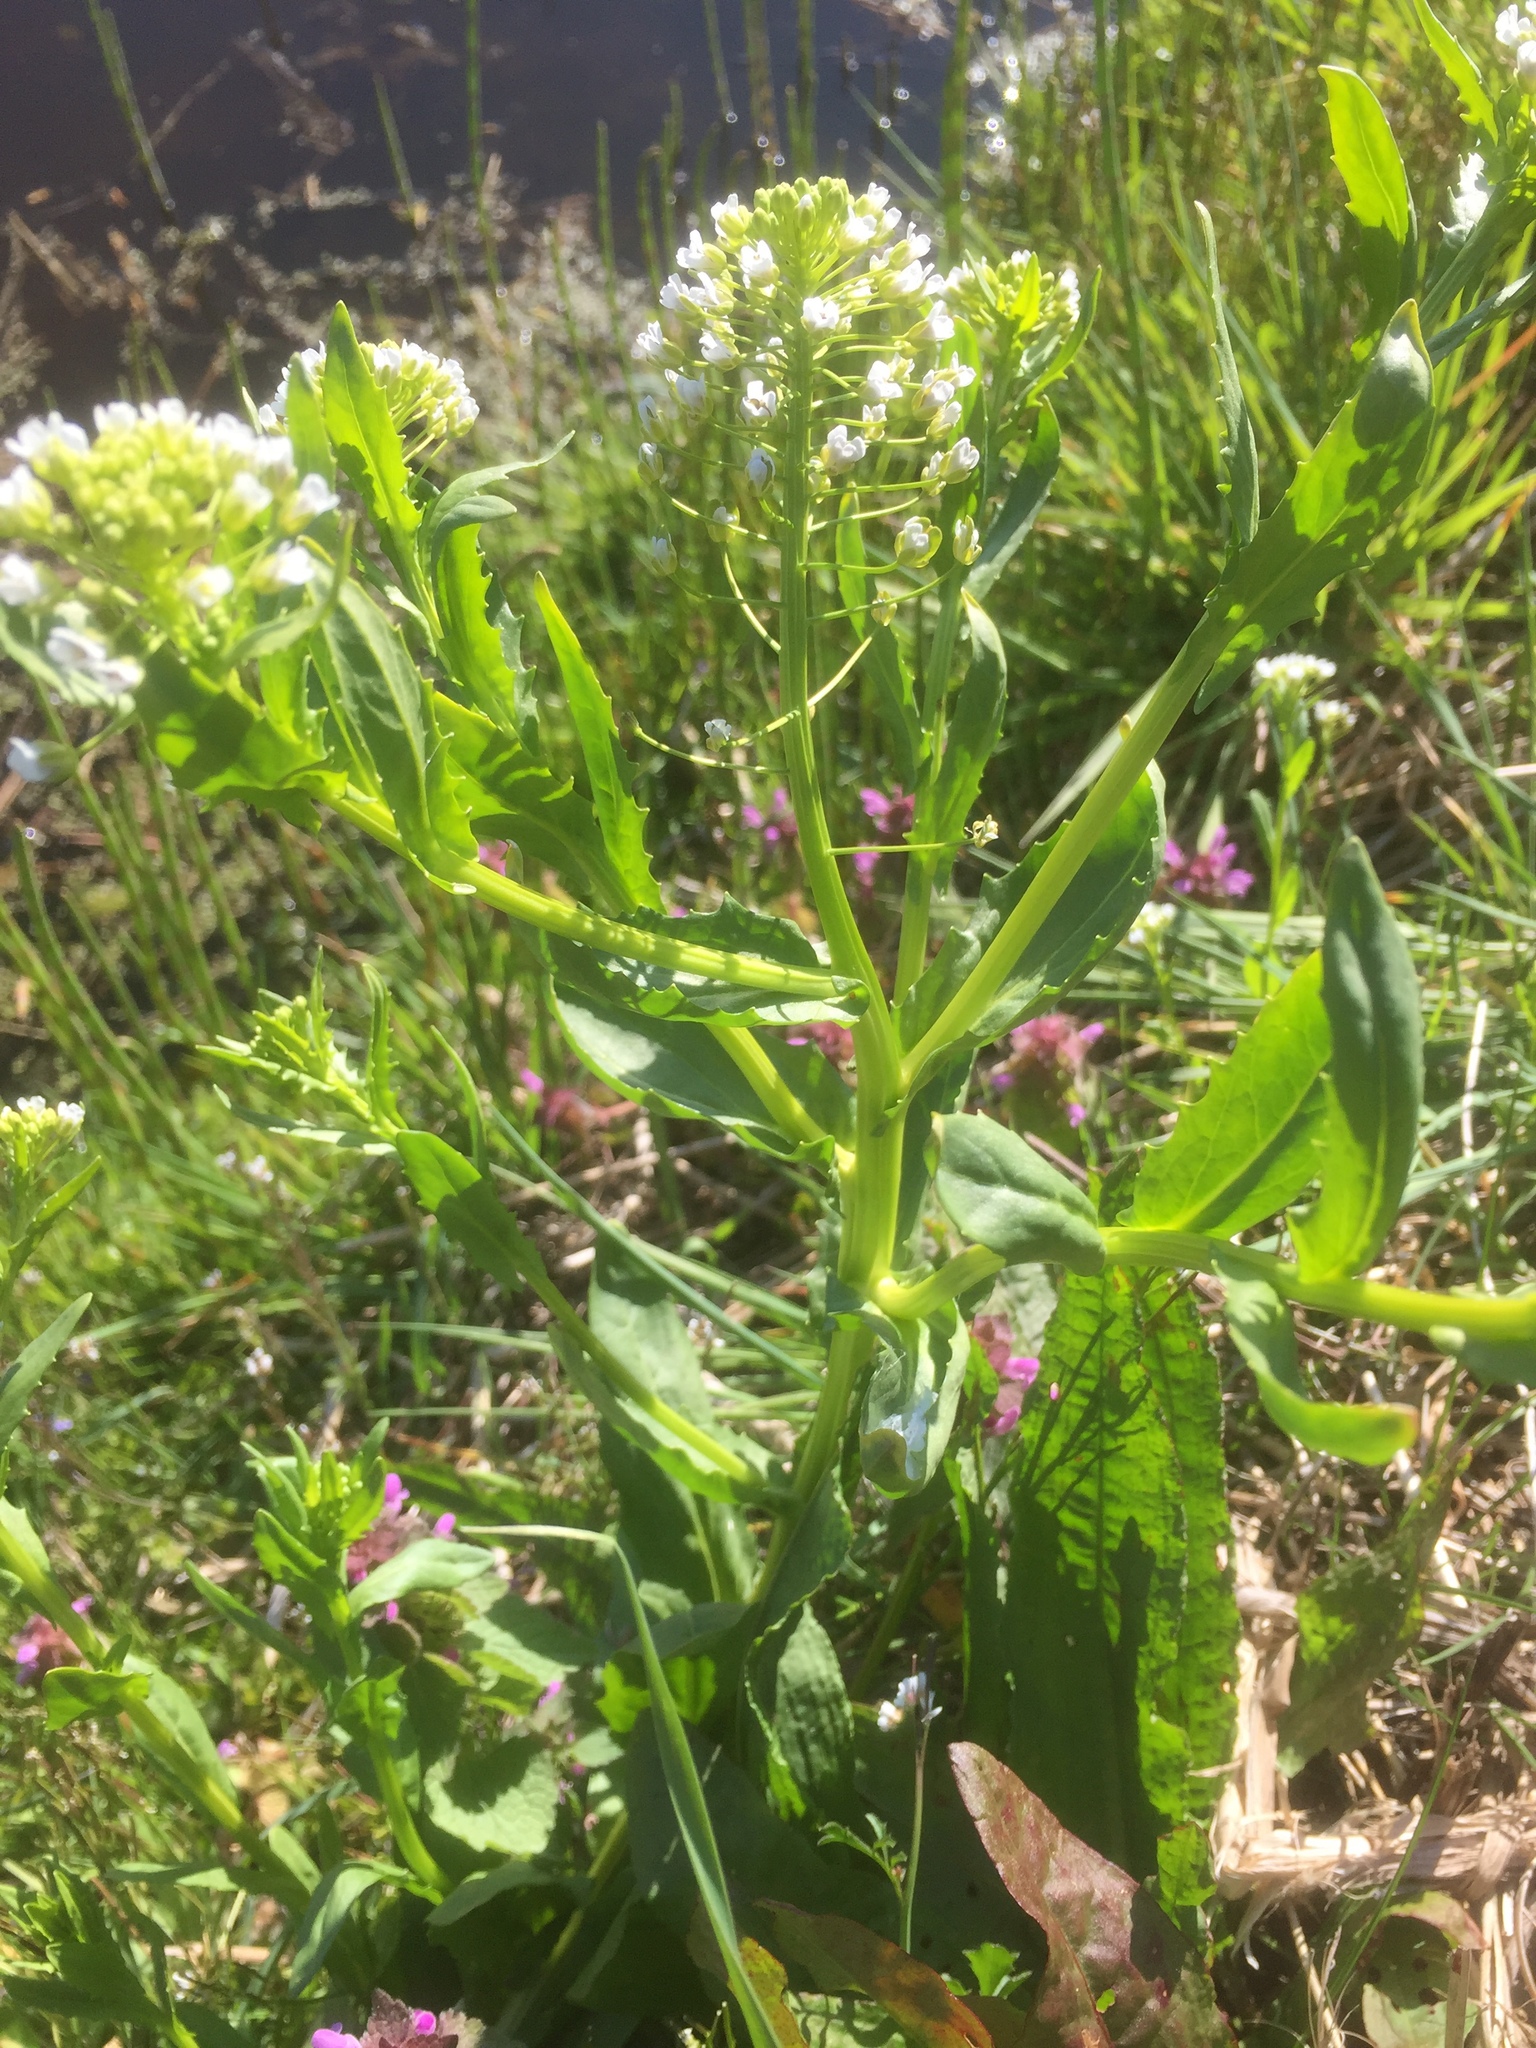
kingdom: Plantae
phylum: Tracheophyta
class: Magnoliopsida
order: Brassicales
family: Brassicaceae
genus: Thlaspi
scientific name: Thlaspi arvense
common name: Field pennycress
